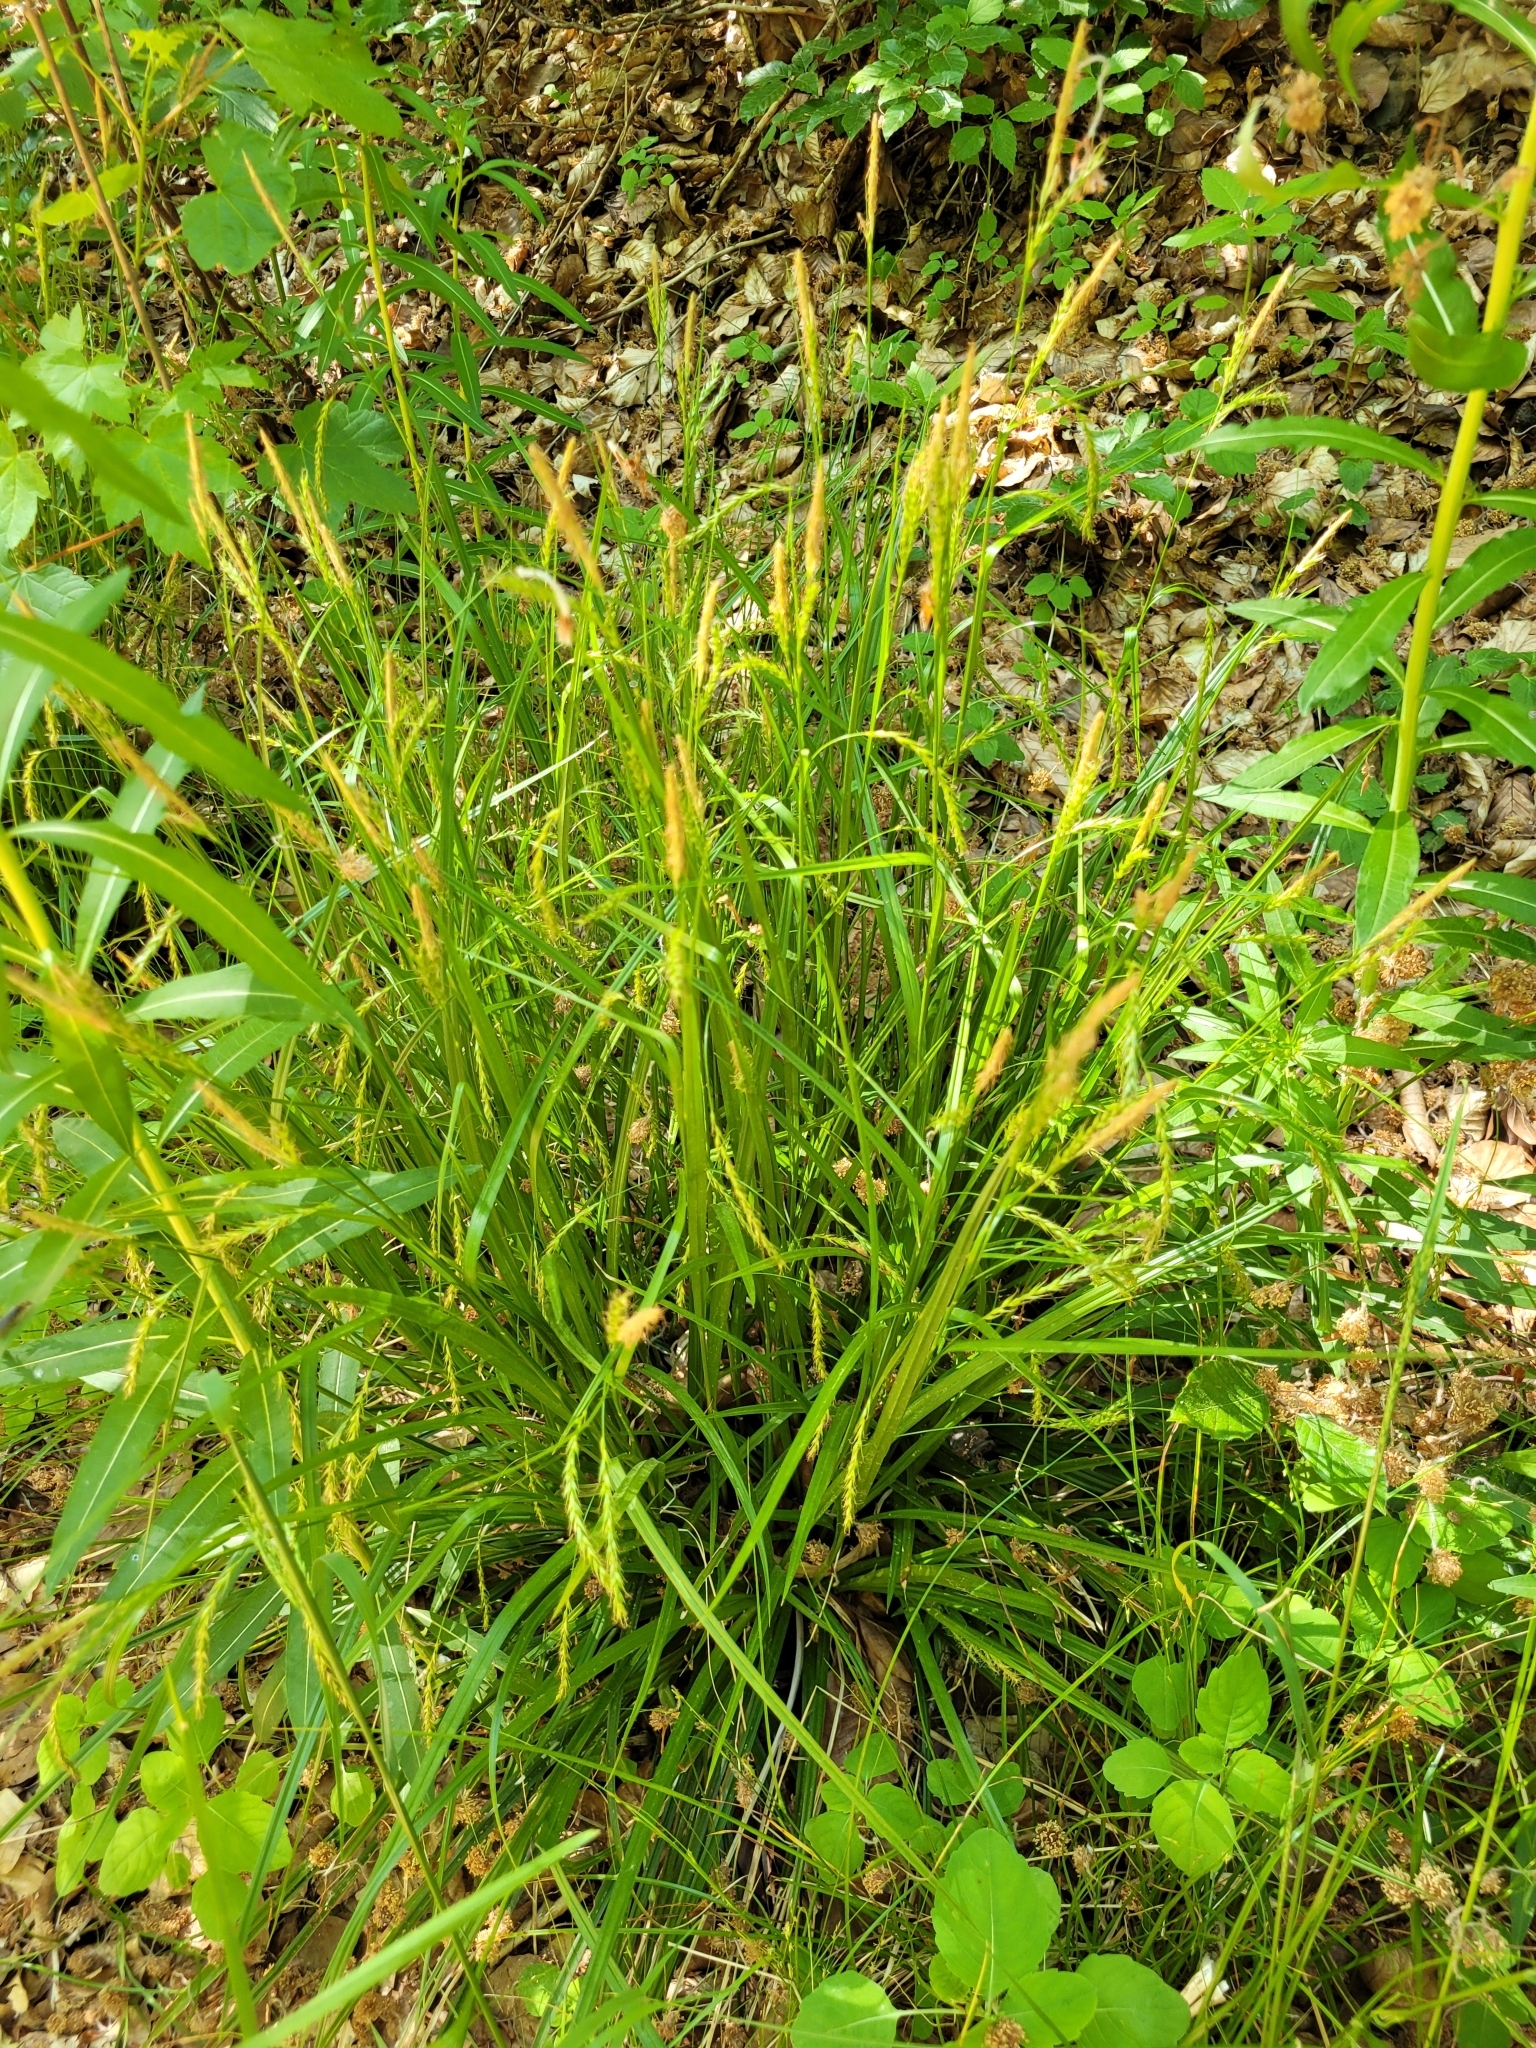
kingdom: Plantae
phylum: Tracheophyta
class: Liliopsida
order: Poales
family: Cyperaceae
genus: Carex
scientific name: Carex sylvatica
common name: Wood-sedge
